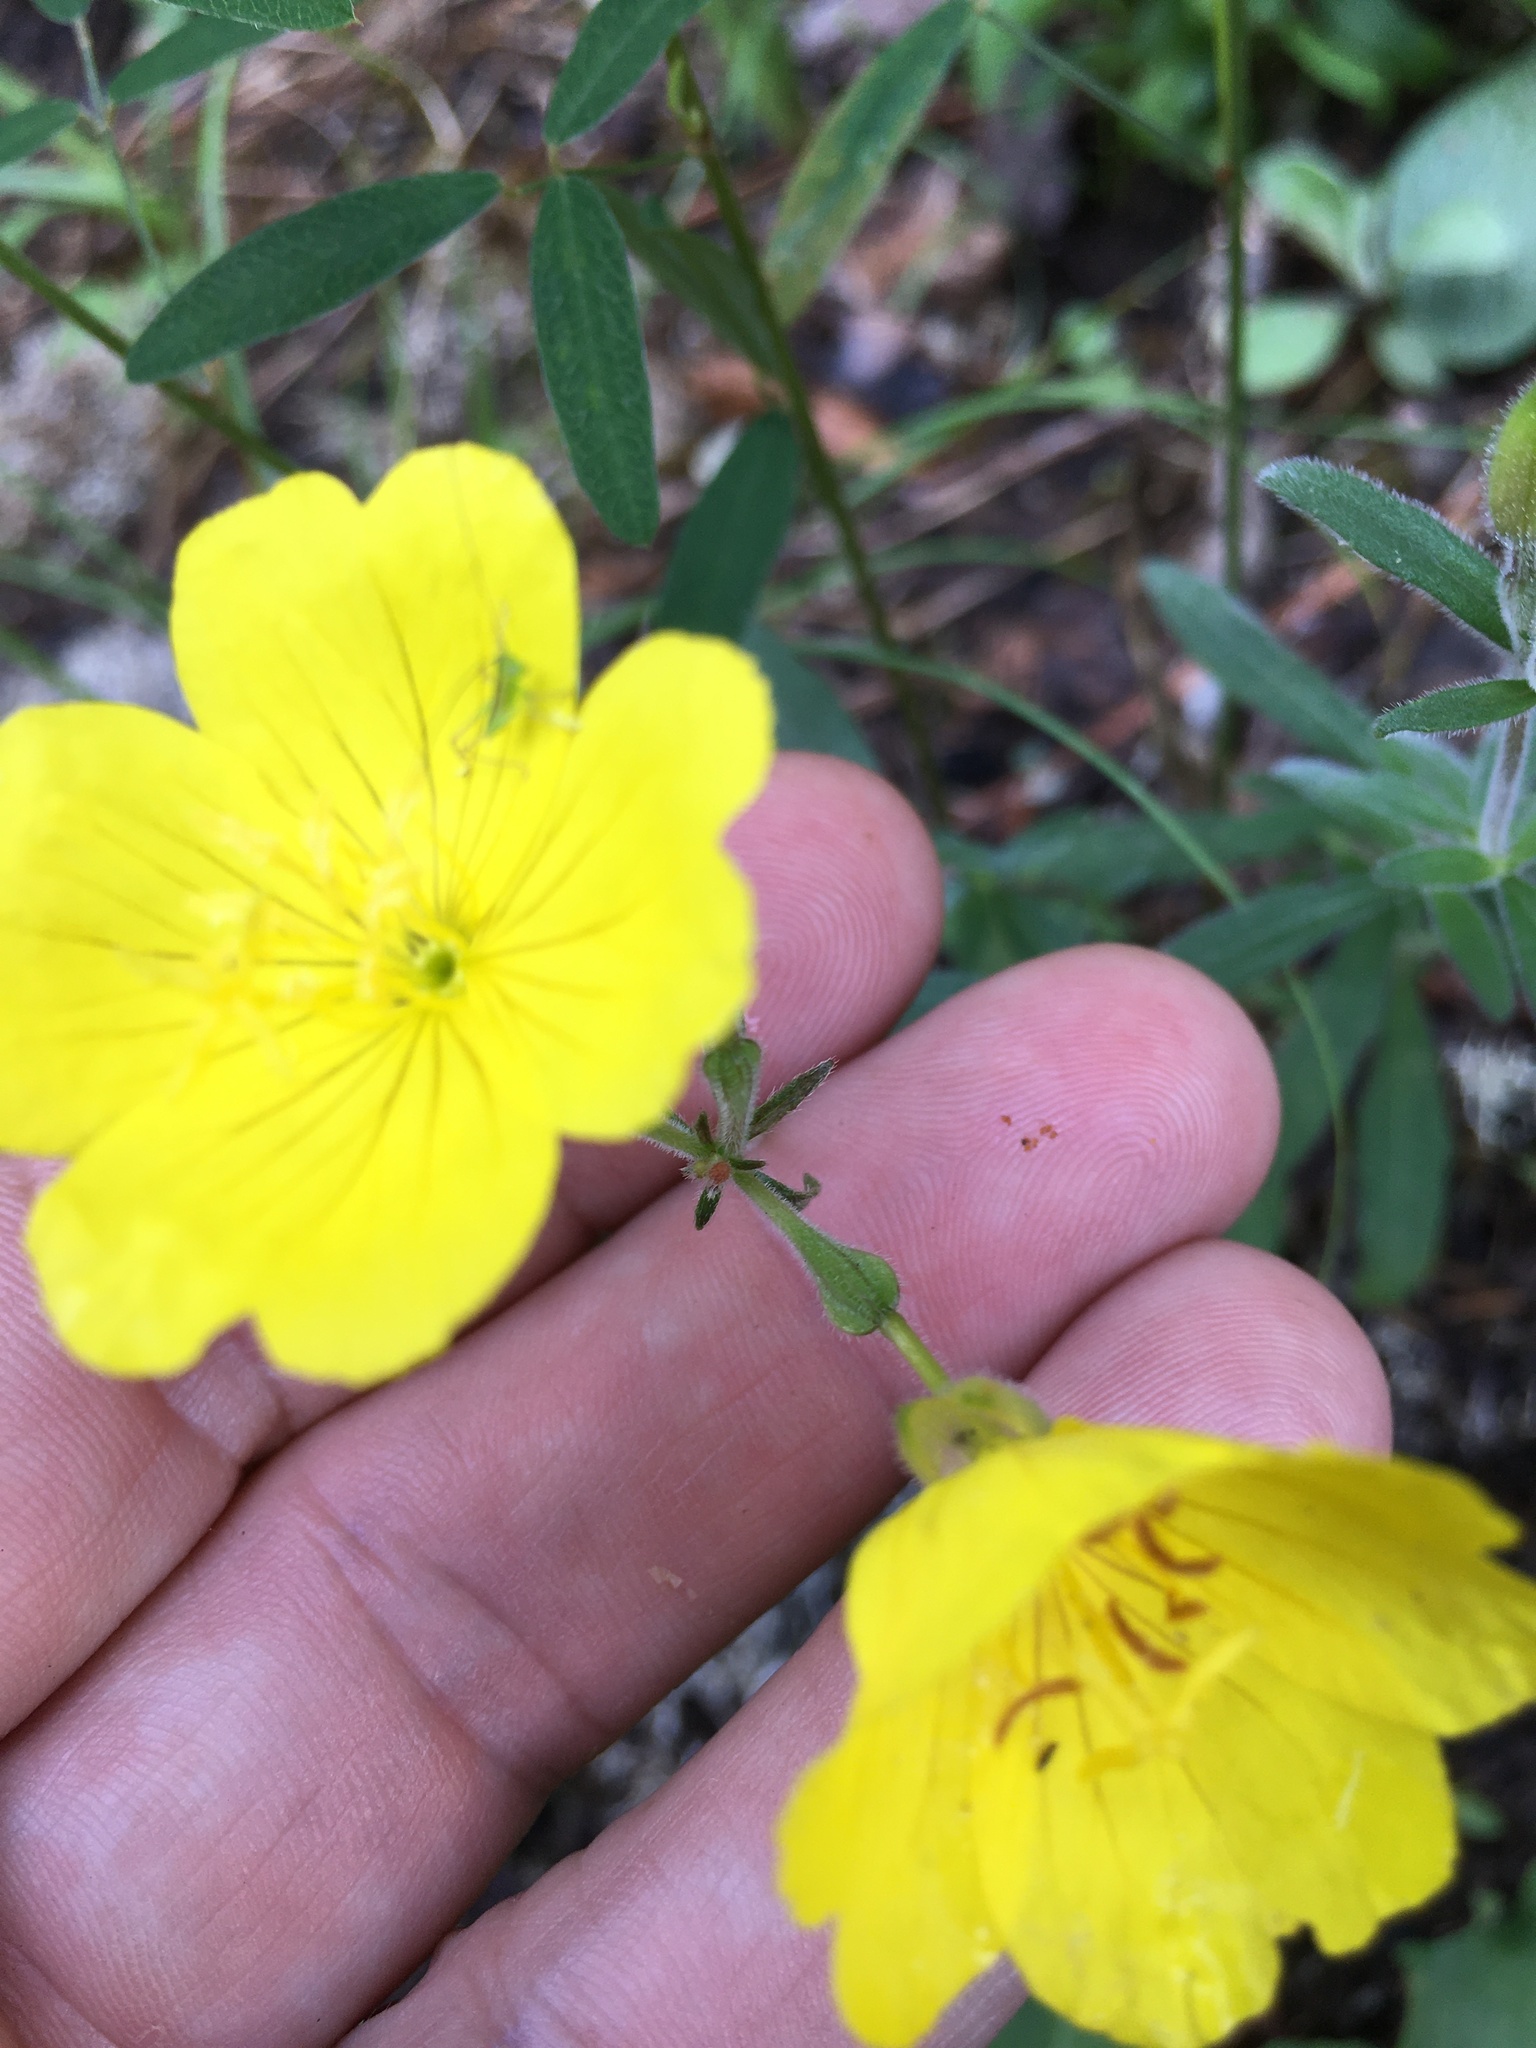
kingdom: Plantae
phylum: Tracheophyta
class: Magnoliopsida
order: Myrtales
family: Onagraceae
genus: Oenothera
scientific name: Oenothera fruticosa
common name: Southern sundrops
